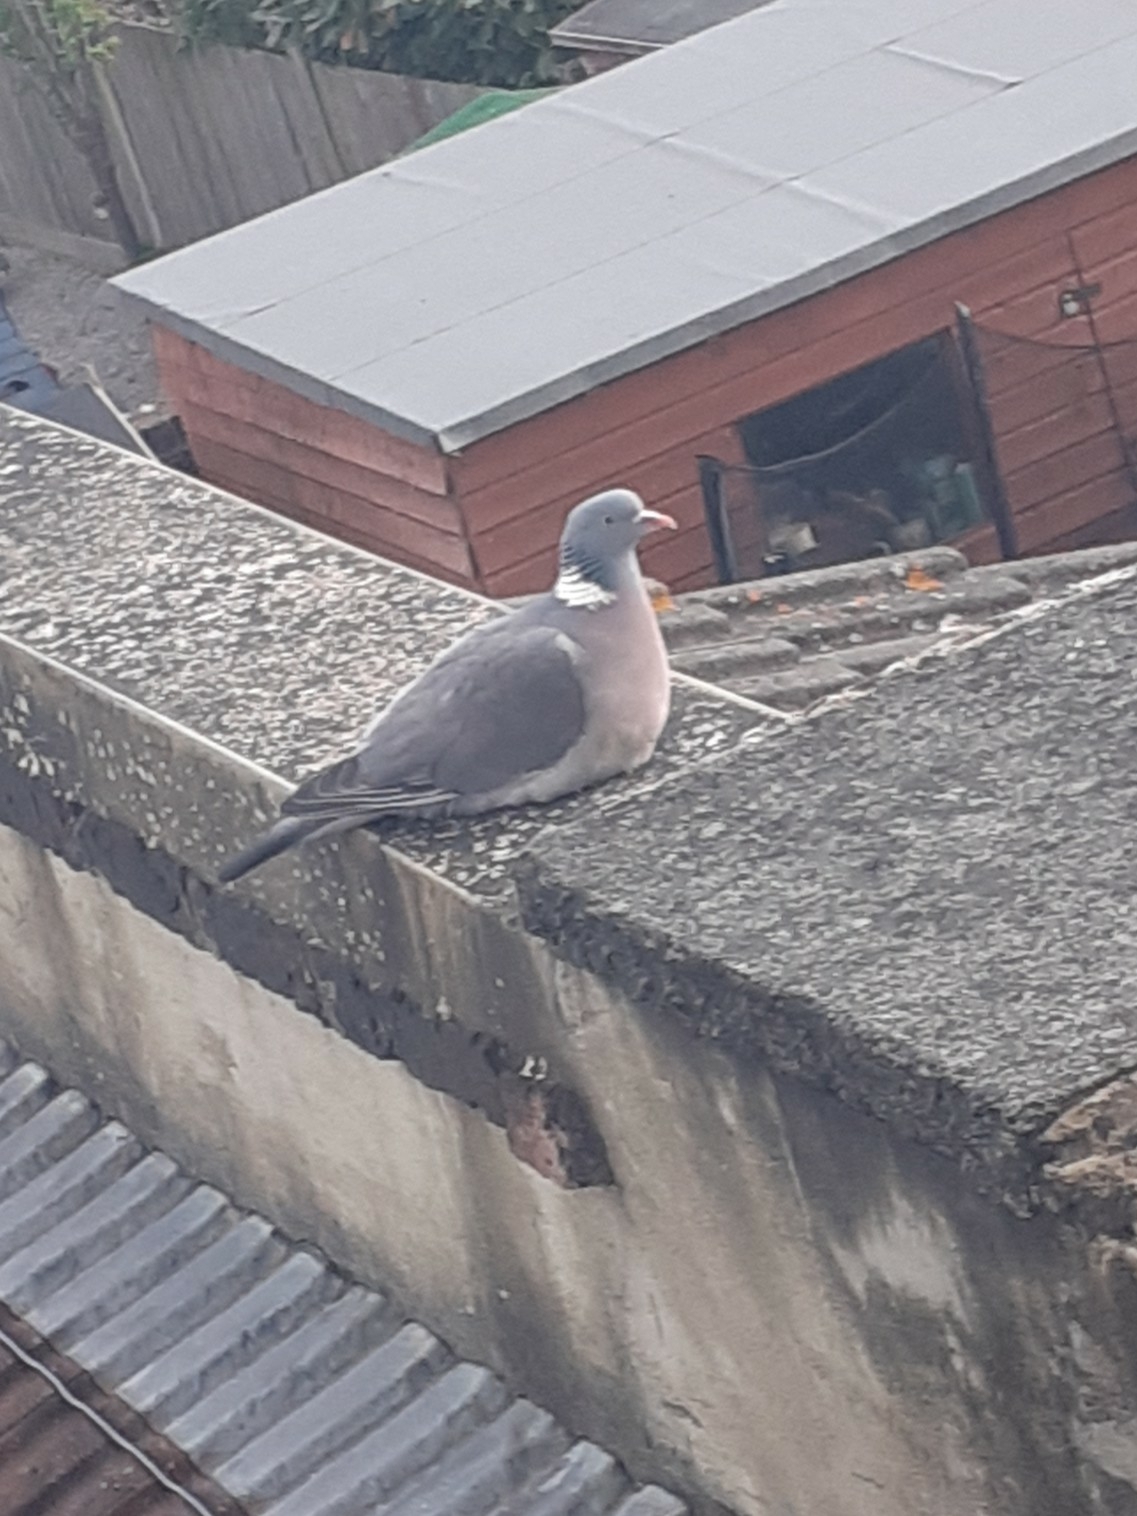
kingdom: Animalia
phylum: Chordata
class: Aves
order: Columbiformes
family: Columbidae
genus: Columba
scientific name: Columba palumbus
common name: Common wood pigeon
